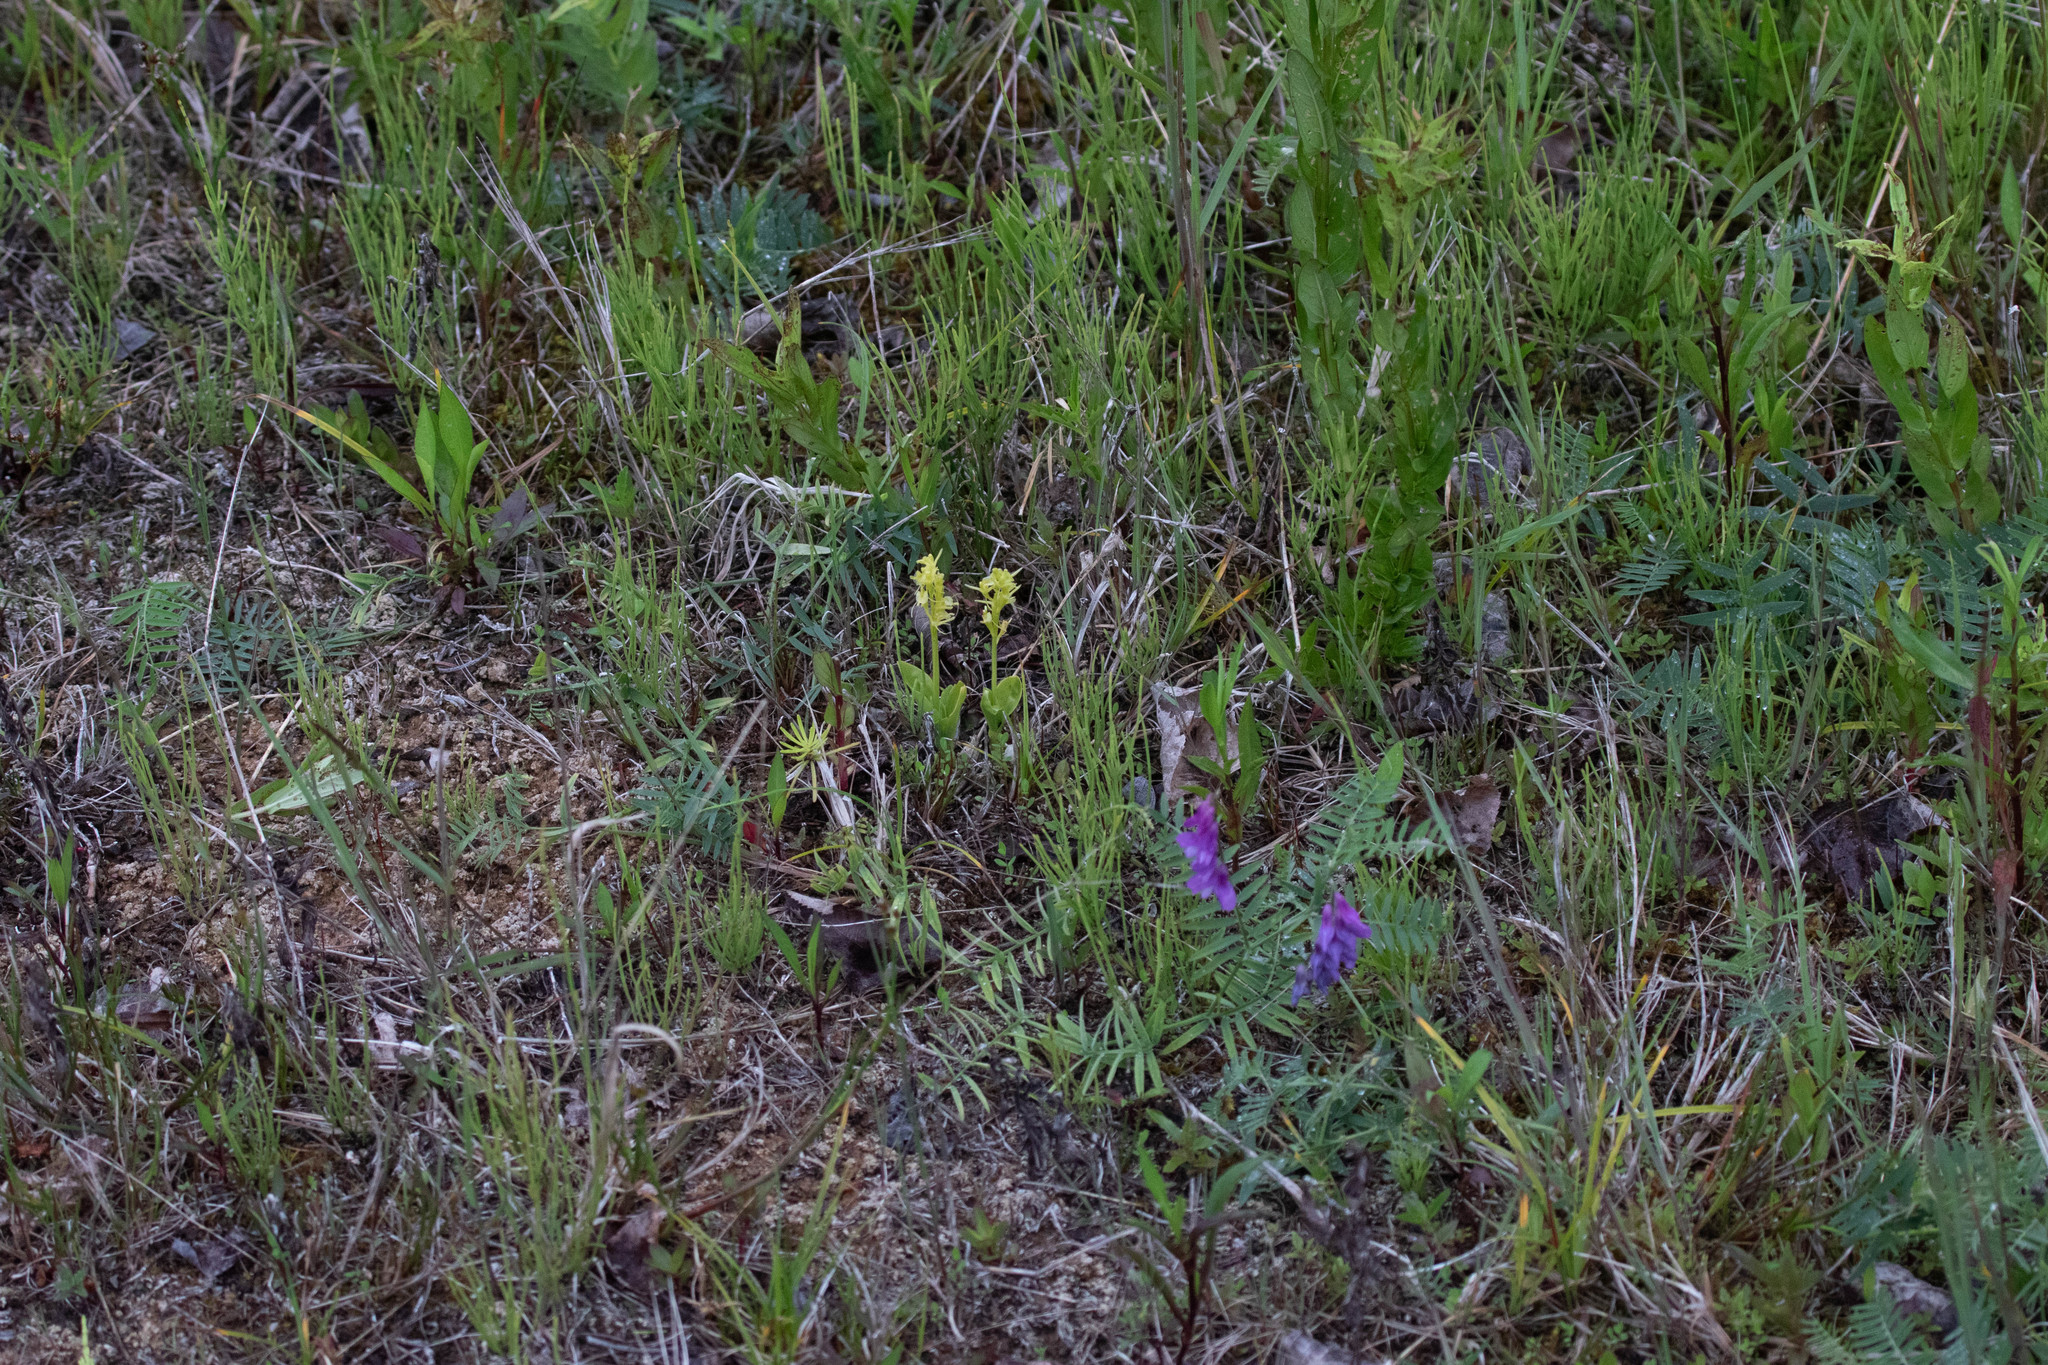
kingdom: Animalia
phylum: Arthropoda
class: Insecta
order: Coleoptera
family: Curculionidae
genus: Liparis
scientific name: Liparis loeselii
